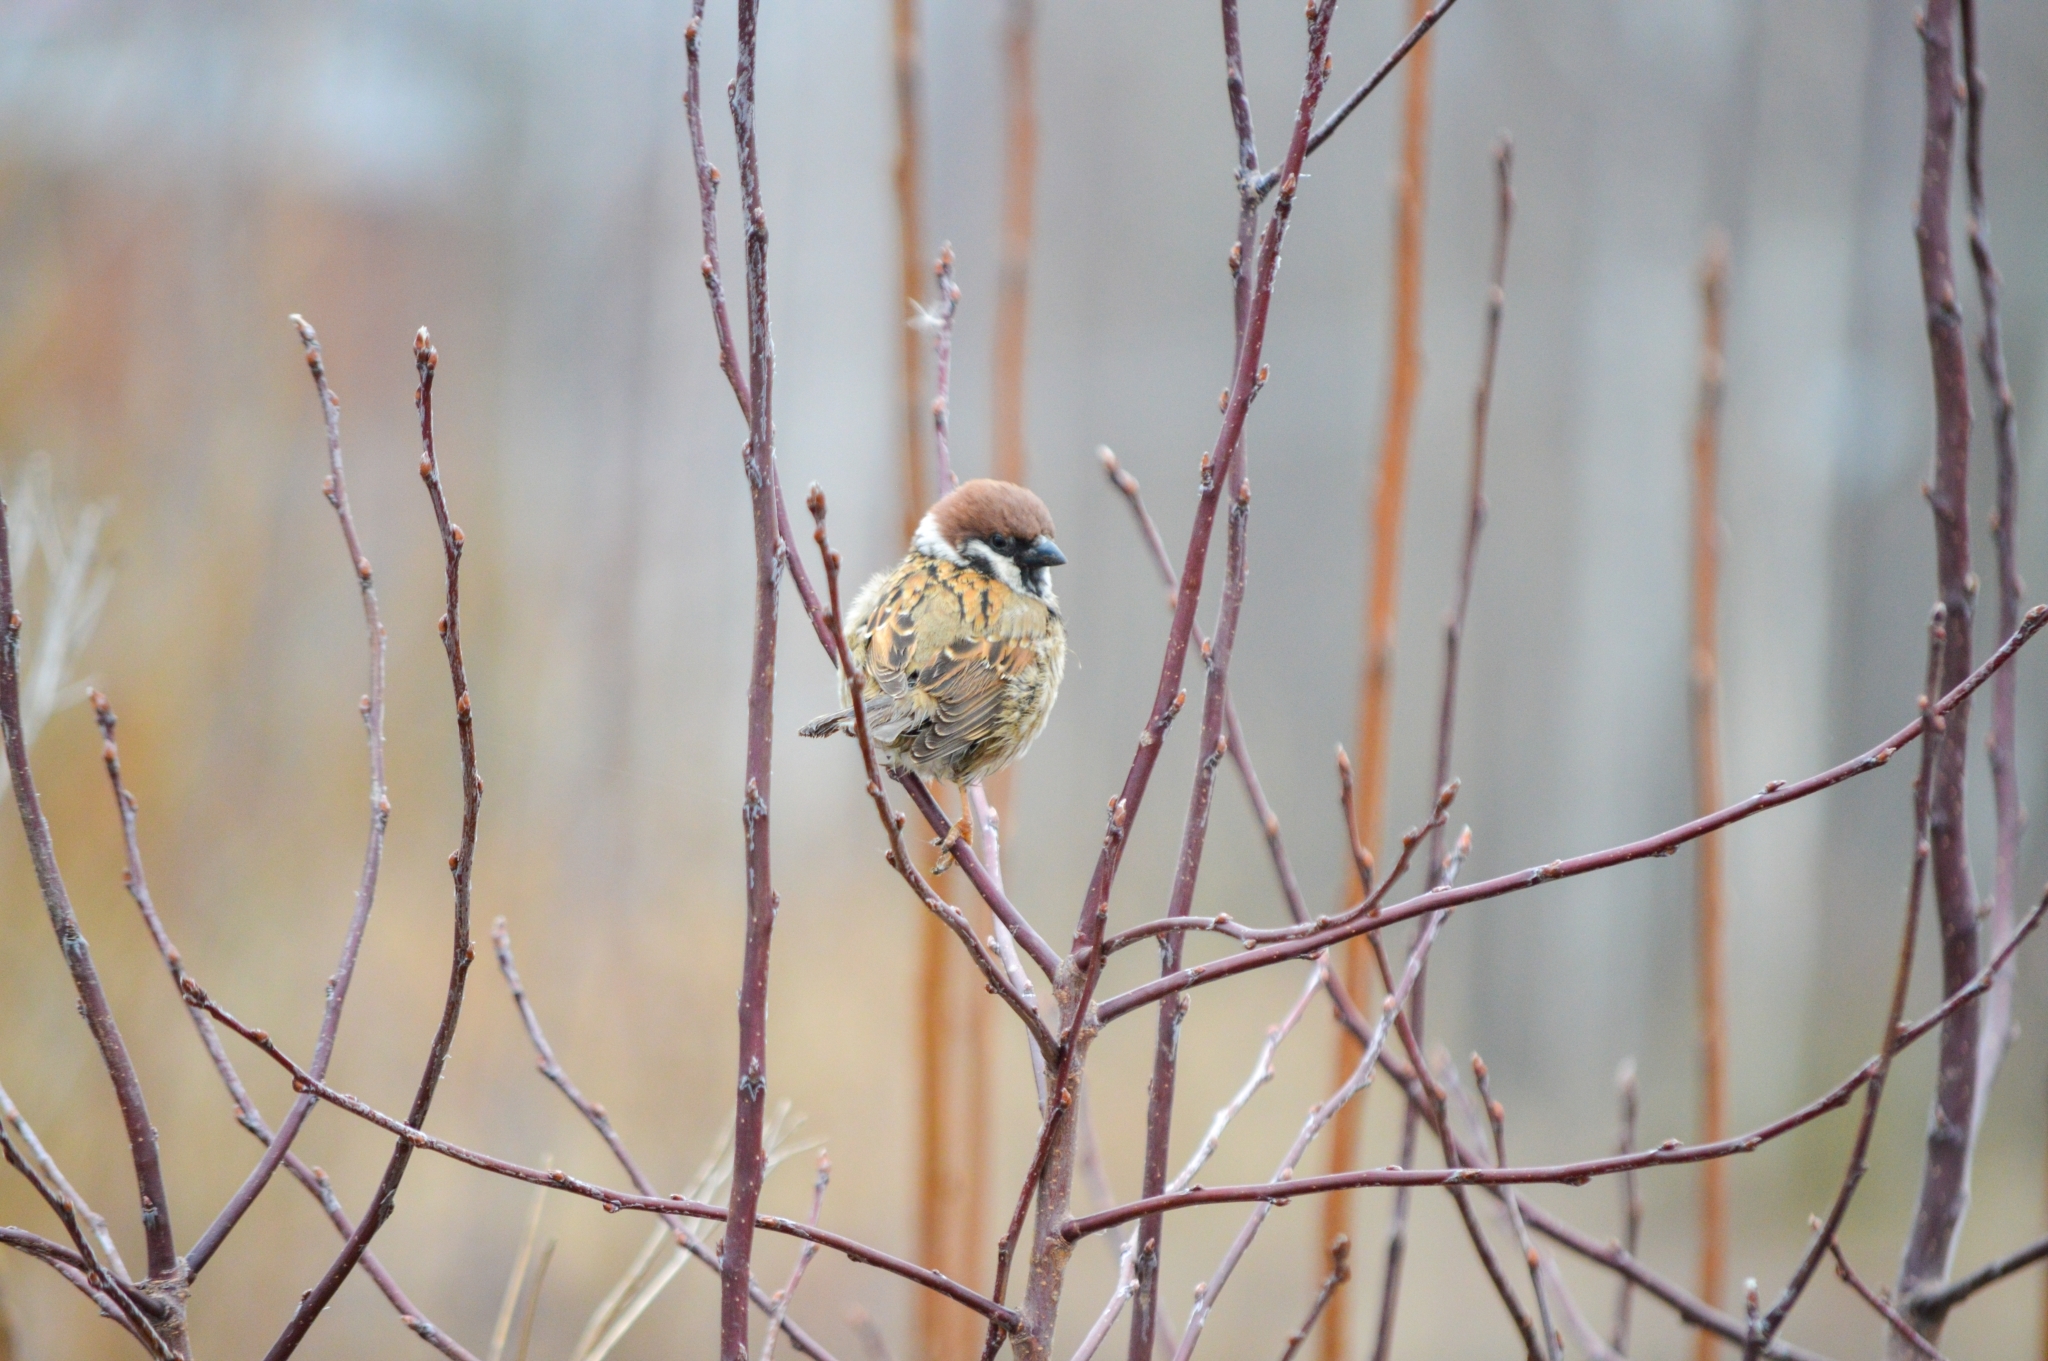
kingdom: Animalia
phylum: Chordata
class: Aves
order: Passeriformes
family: Passeridae
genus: Passer
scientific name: Passer montanus
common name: Eurasian tree sparrow
